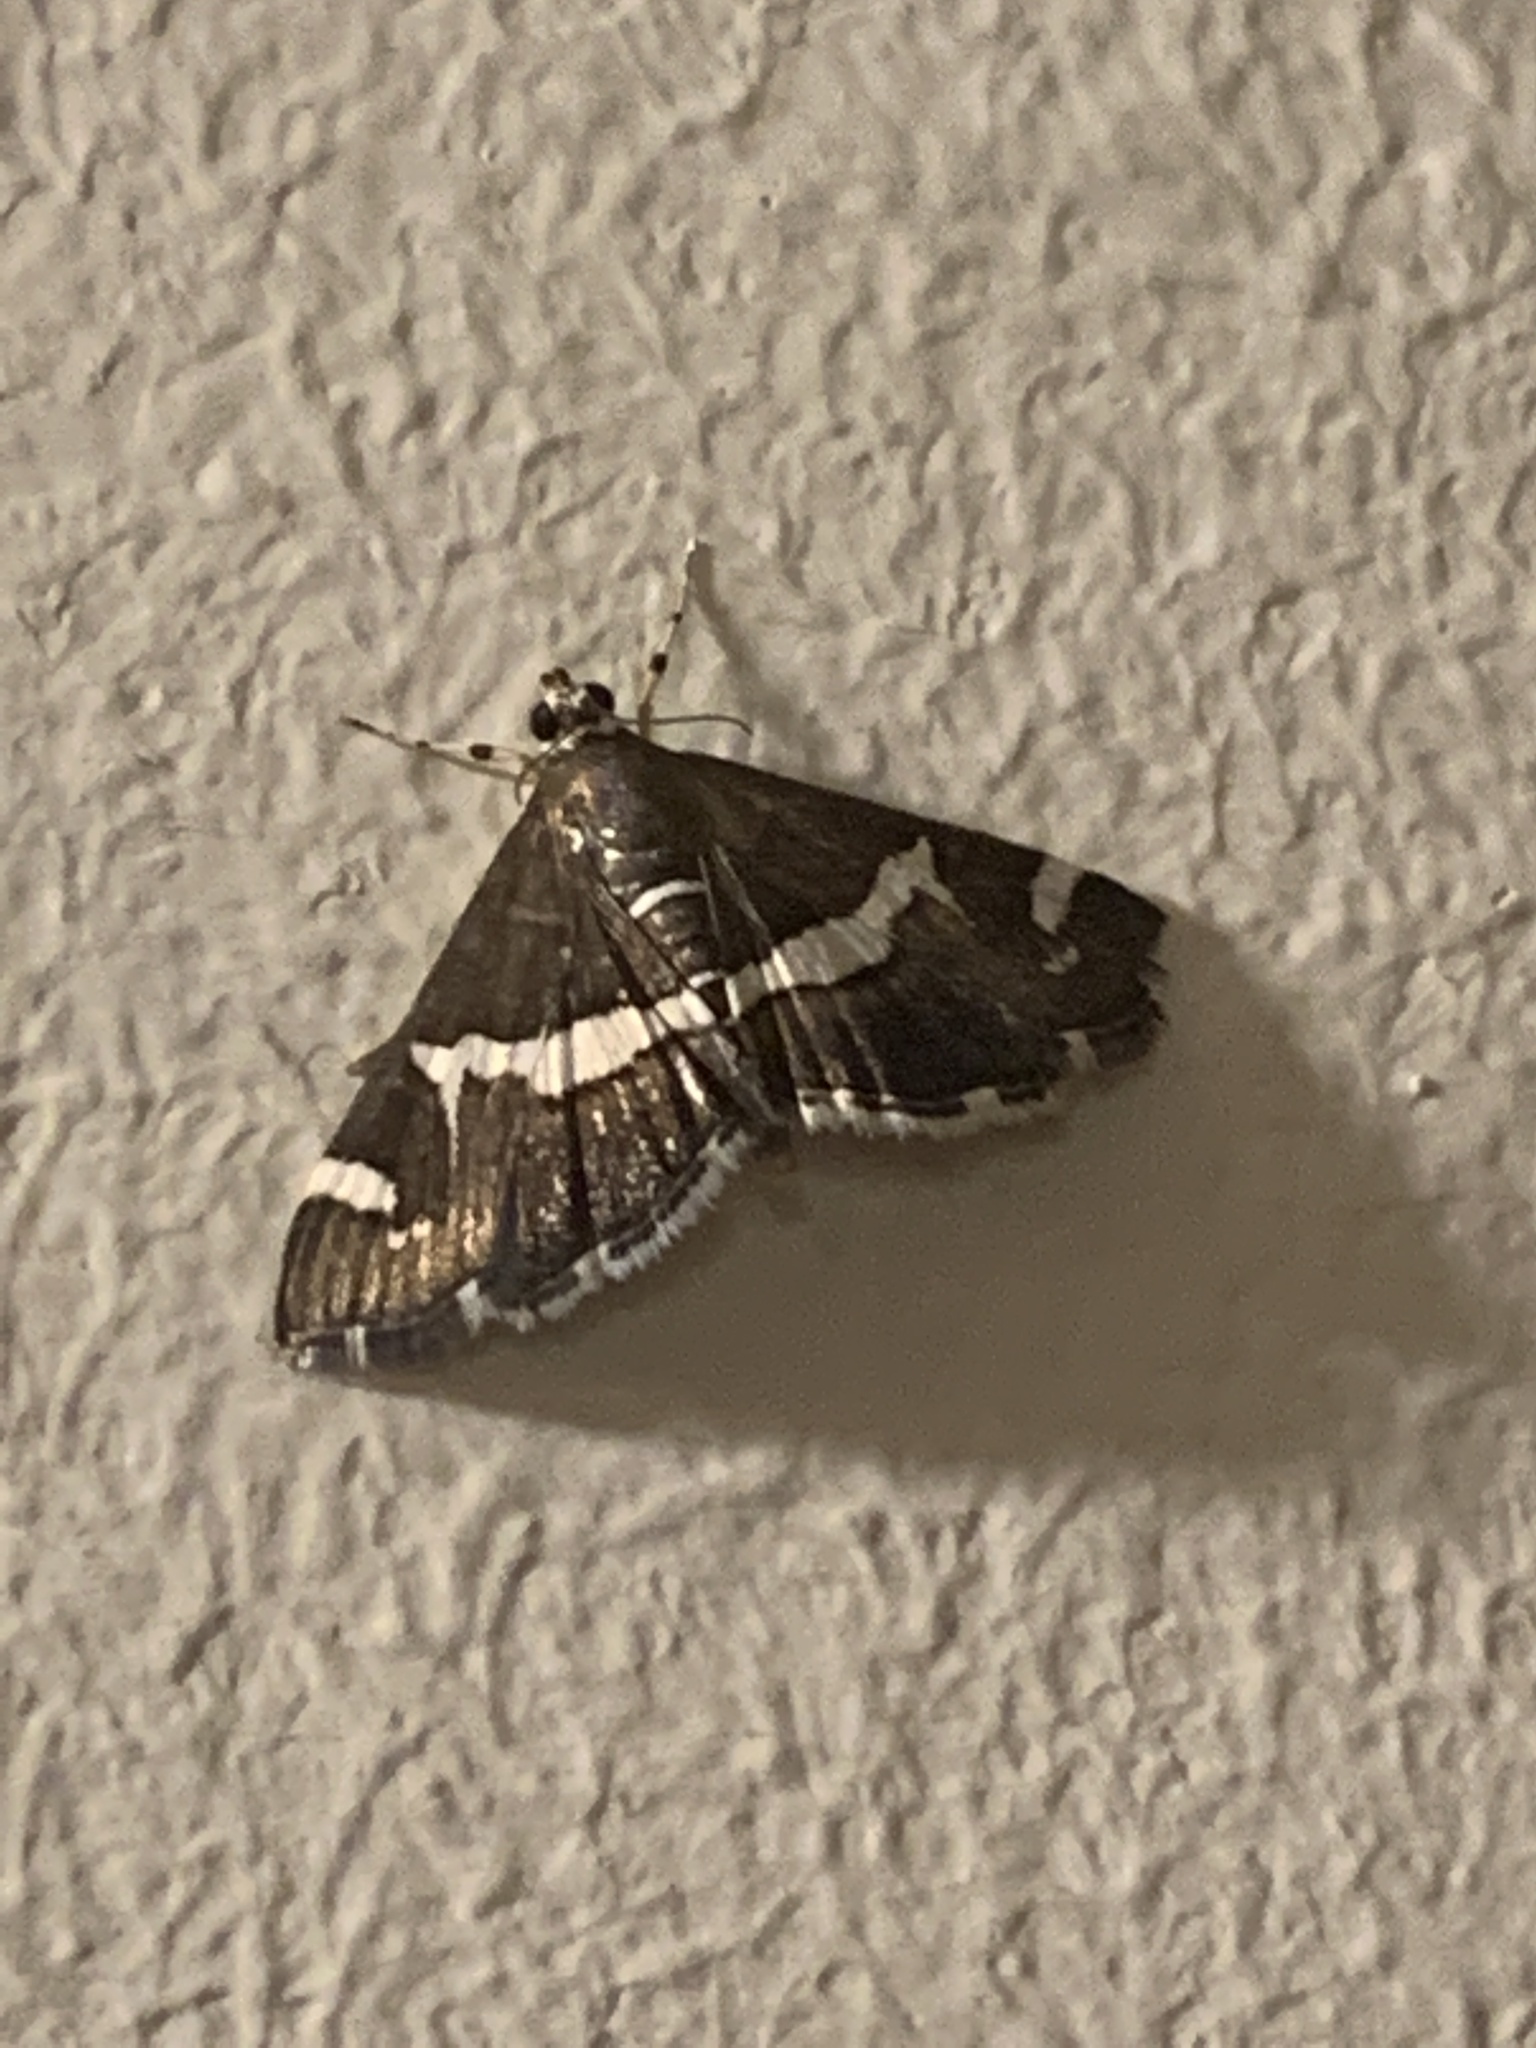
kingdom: Animalia
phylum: Arthropoda
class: Insecta
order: Lepidoptera
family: Crambidae
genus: Spoladea
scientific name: Spoladea recurvalis
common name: Beet webworm moth
